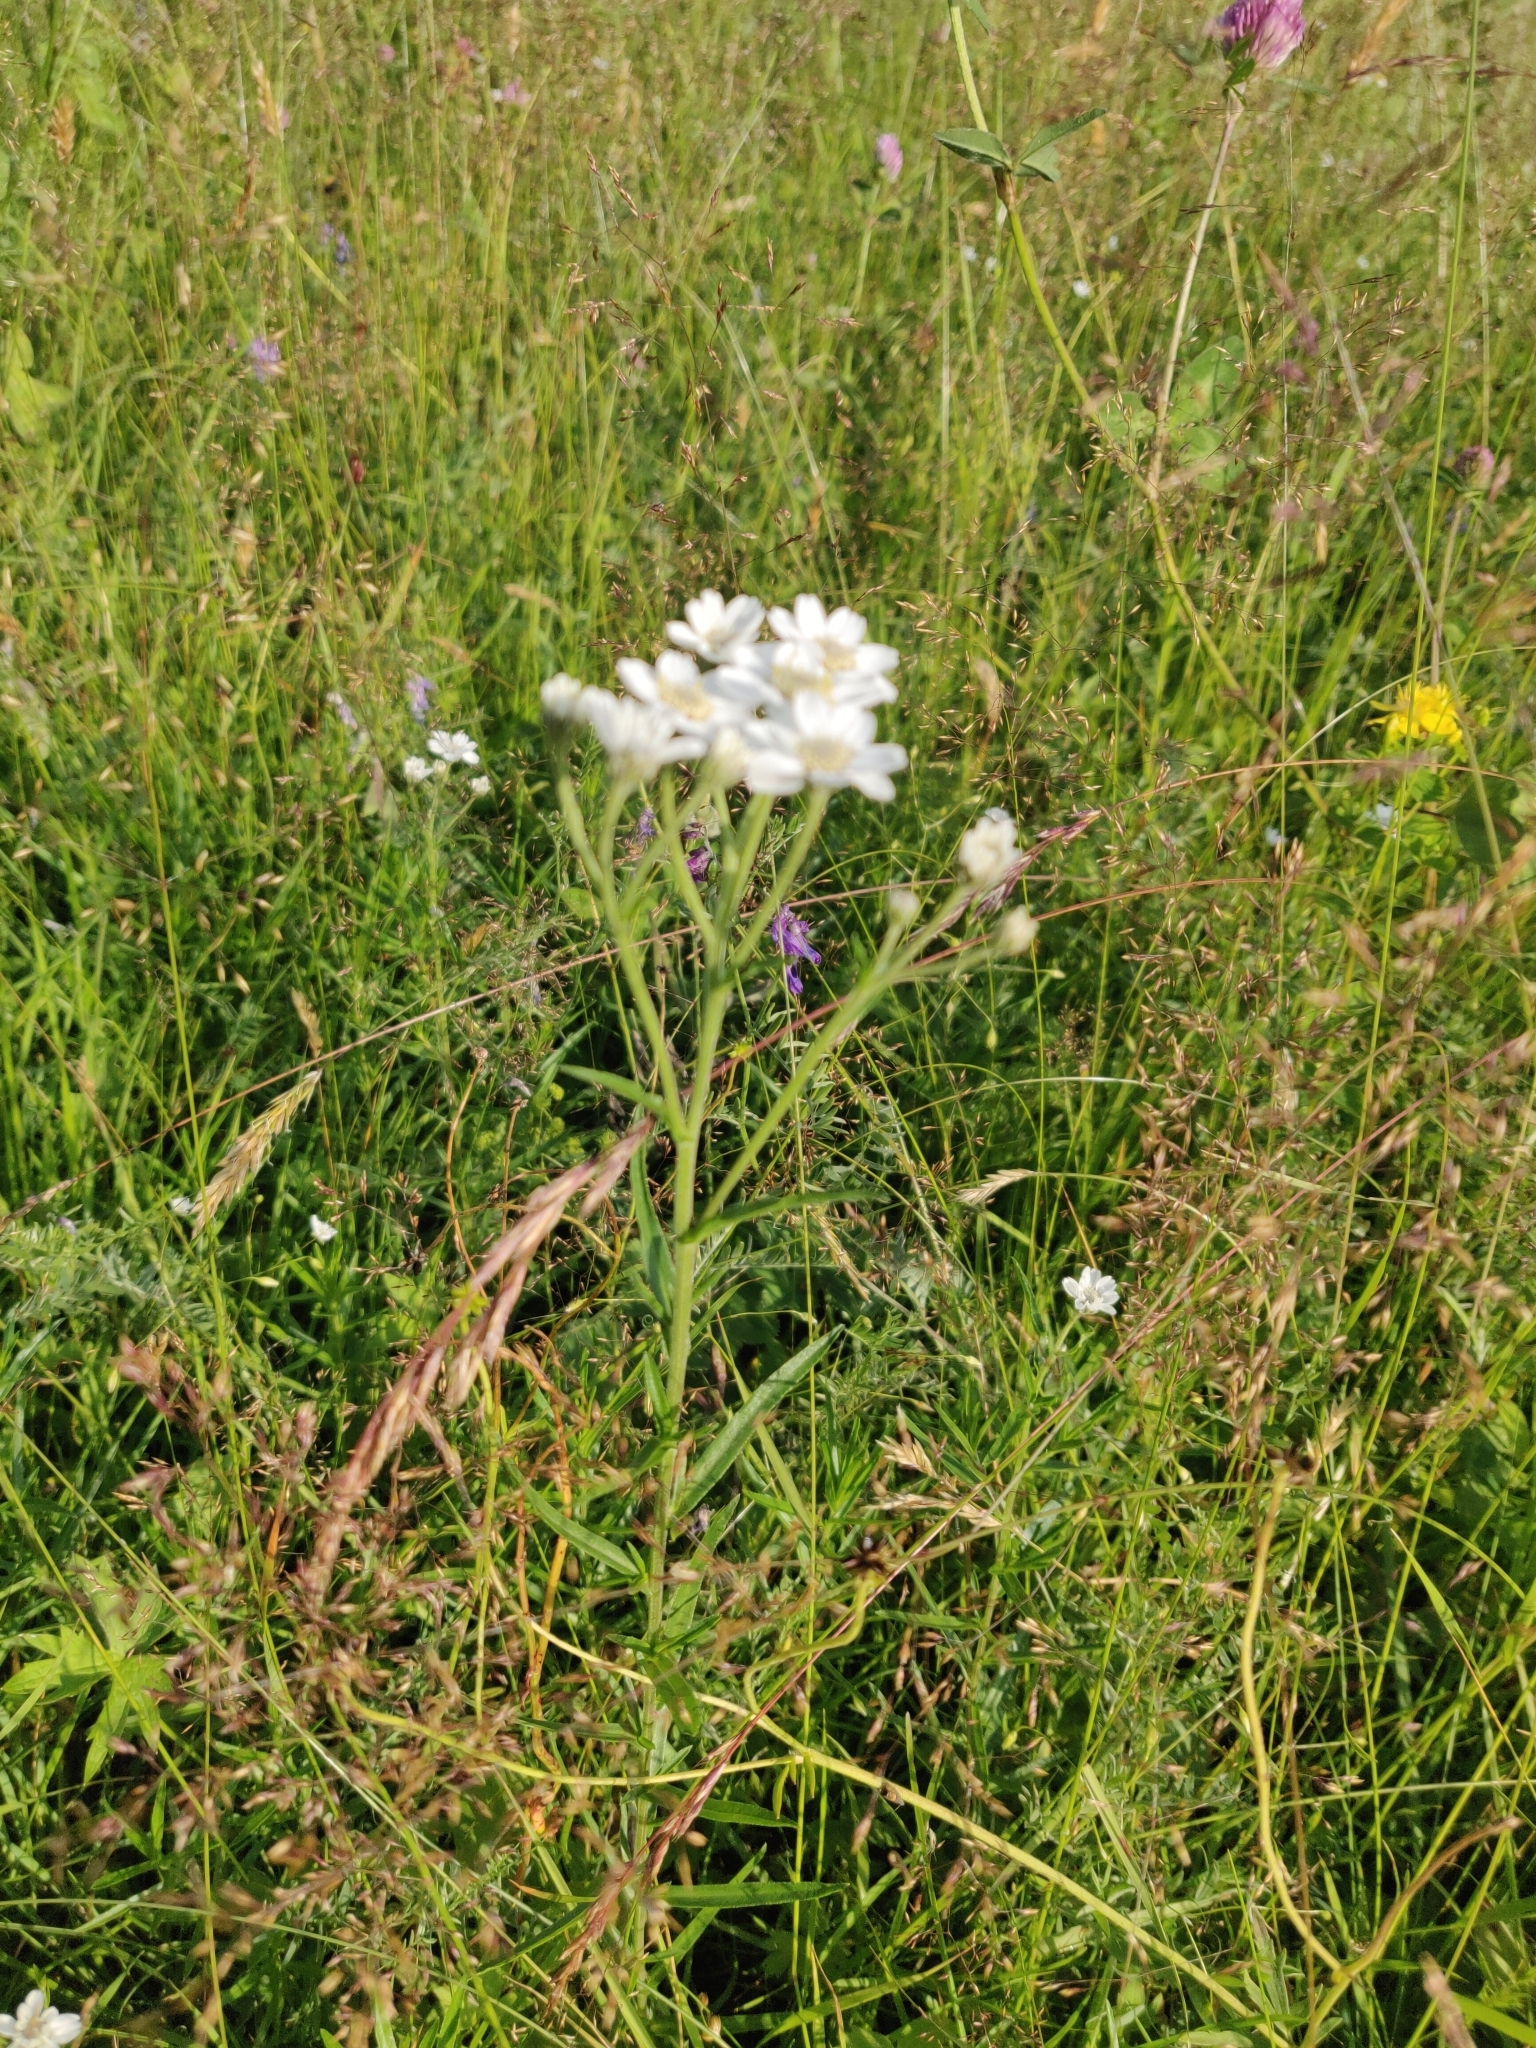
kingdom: Plantae
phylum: Tracheophyta
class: Magnoliopsida
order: Asterales
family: Asteraceae
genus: Achillea
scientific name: Achillea ptarmica
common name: Sneezeweed
